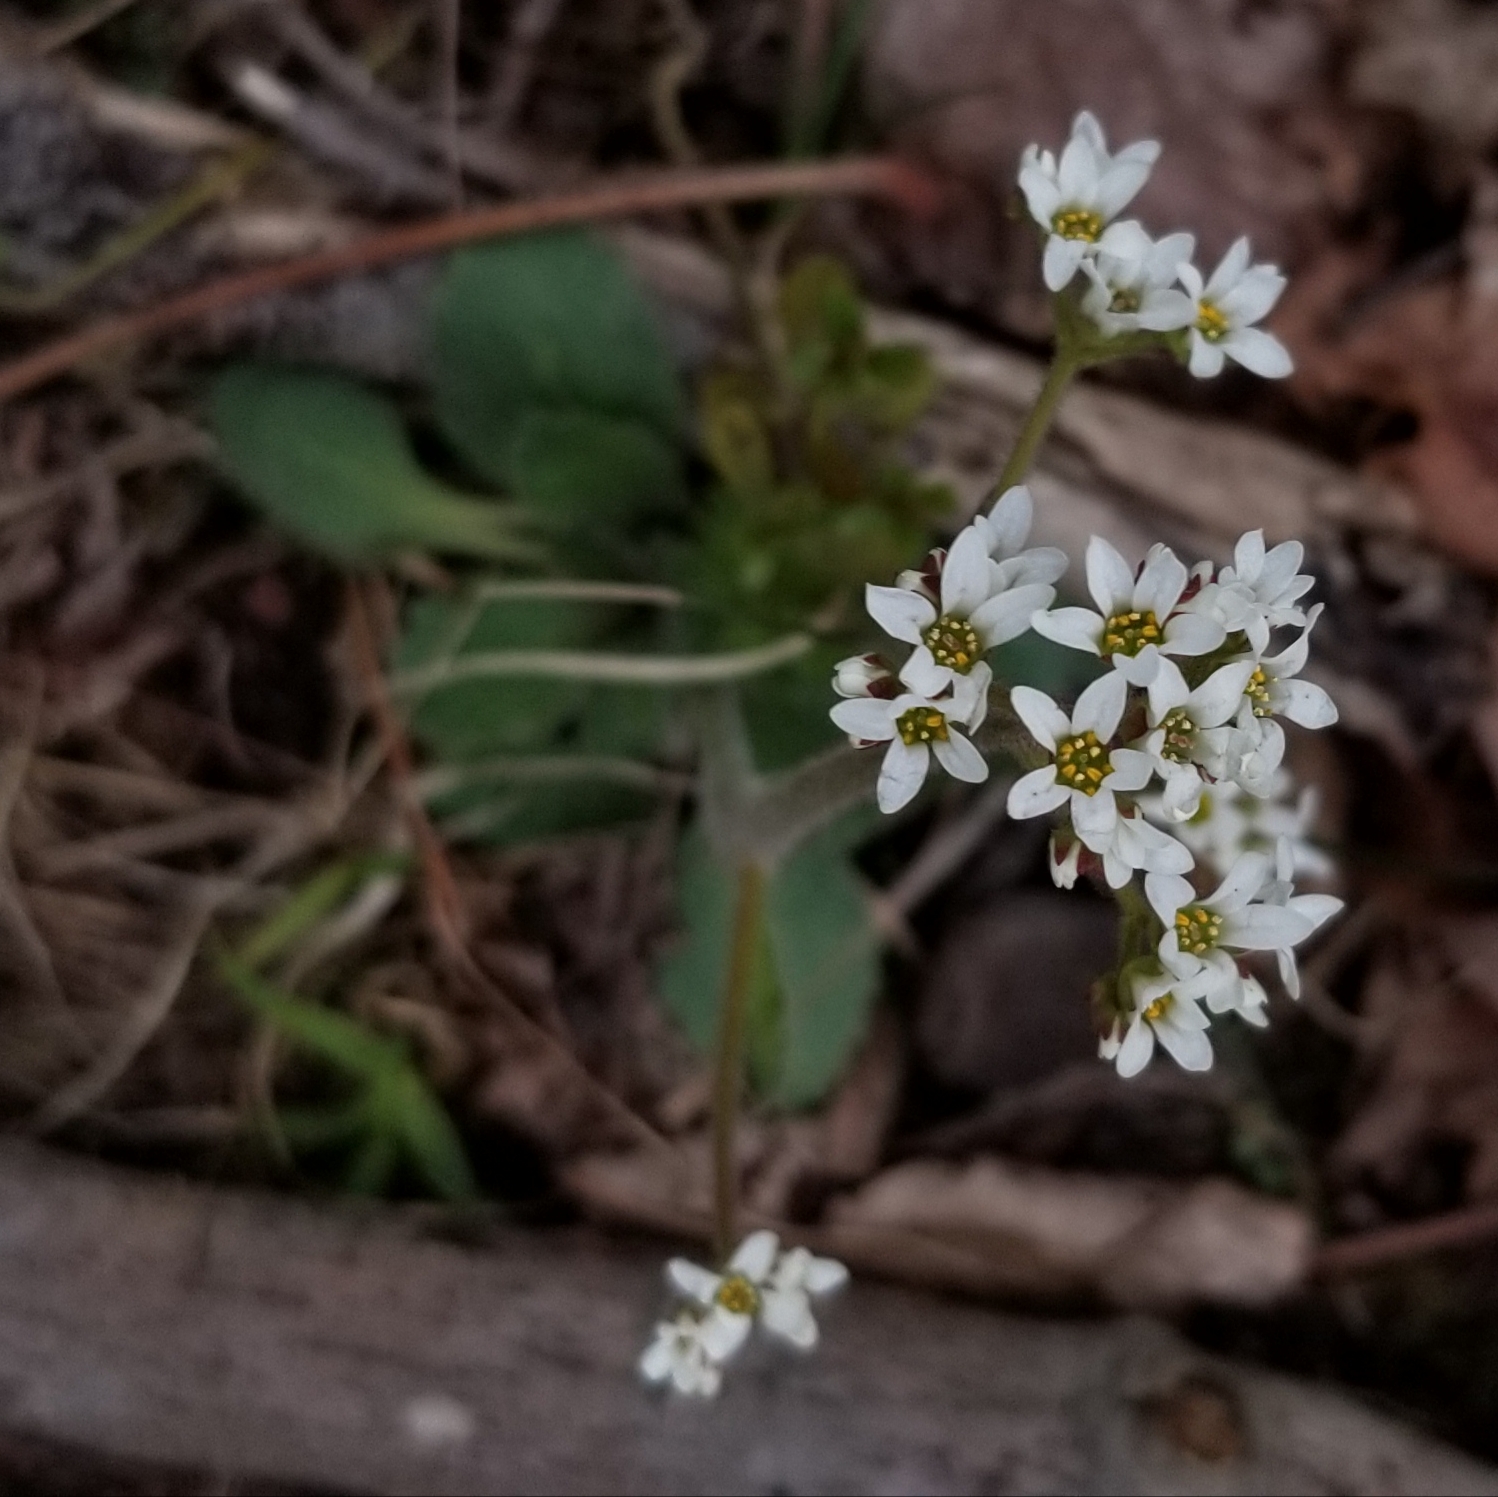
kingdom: Plantae
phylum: Tracheophyta
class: Magnoliopsida
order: Saxifragales
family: Saxifragaceae
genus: Micranthes
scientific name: Micranthes virginiensis
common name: Early saxifrage
